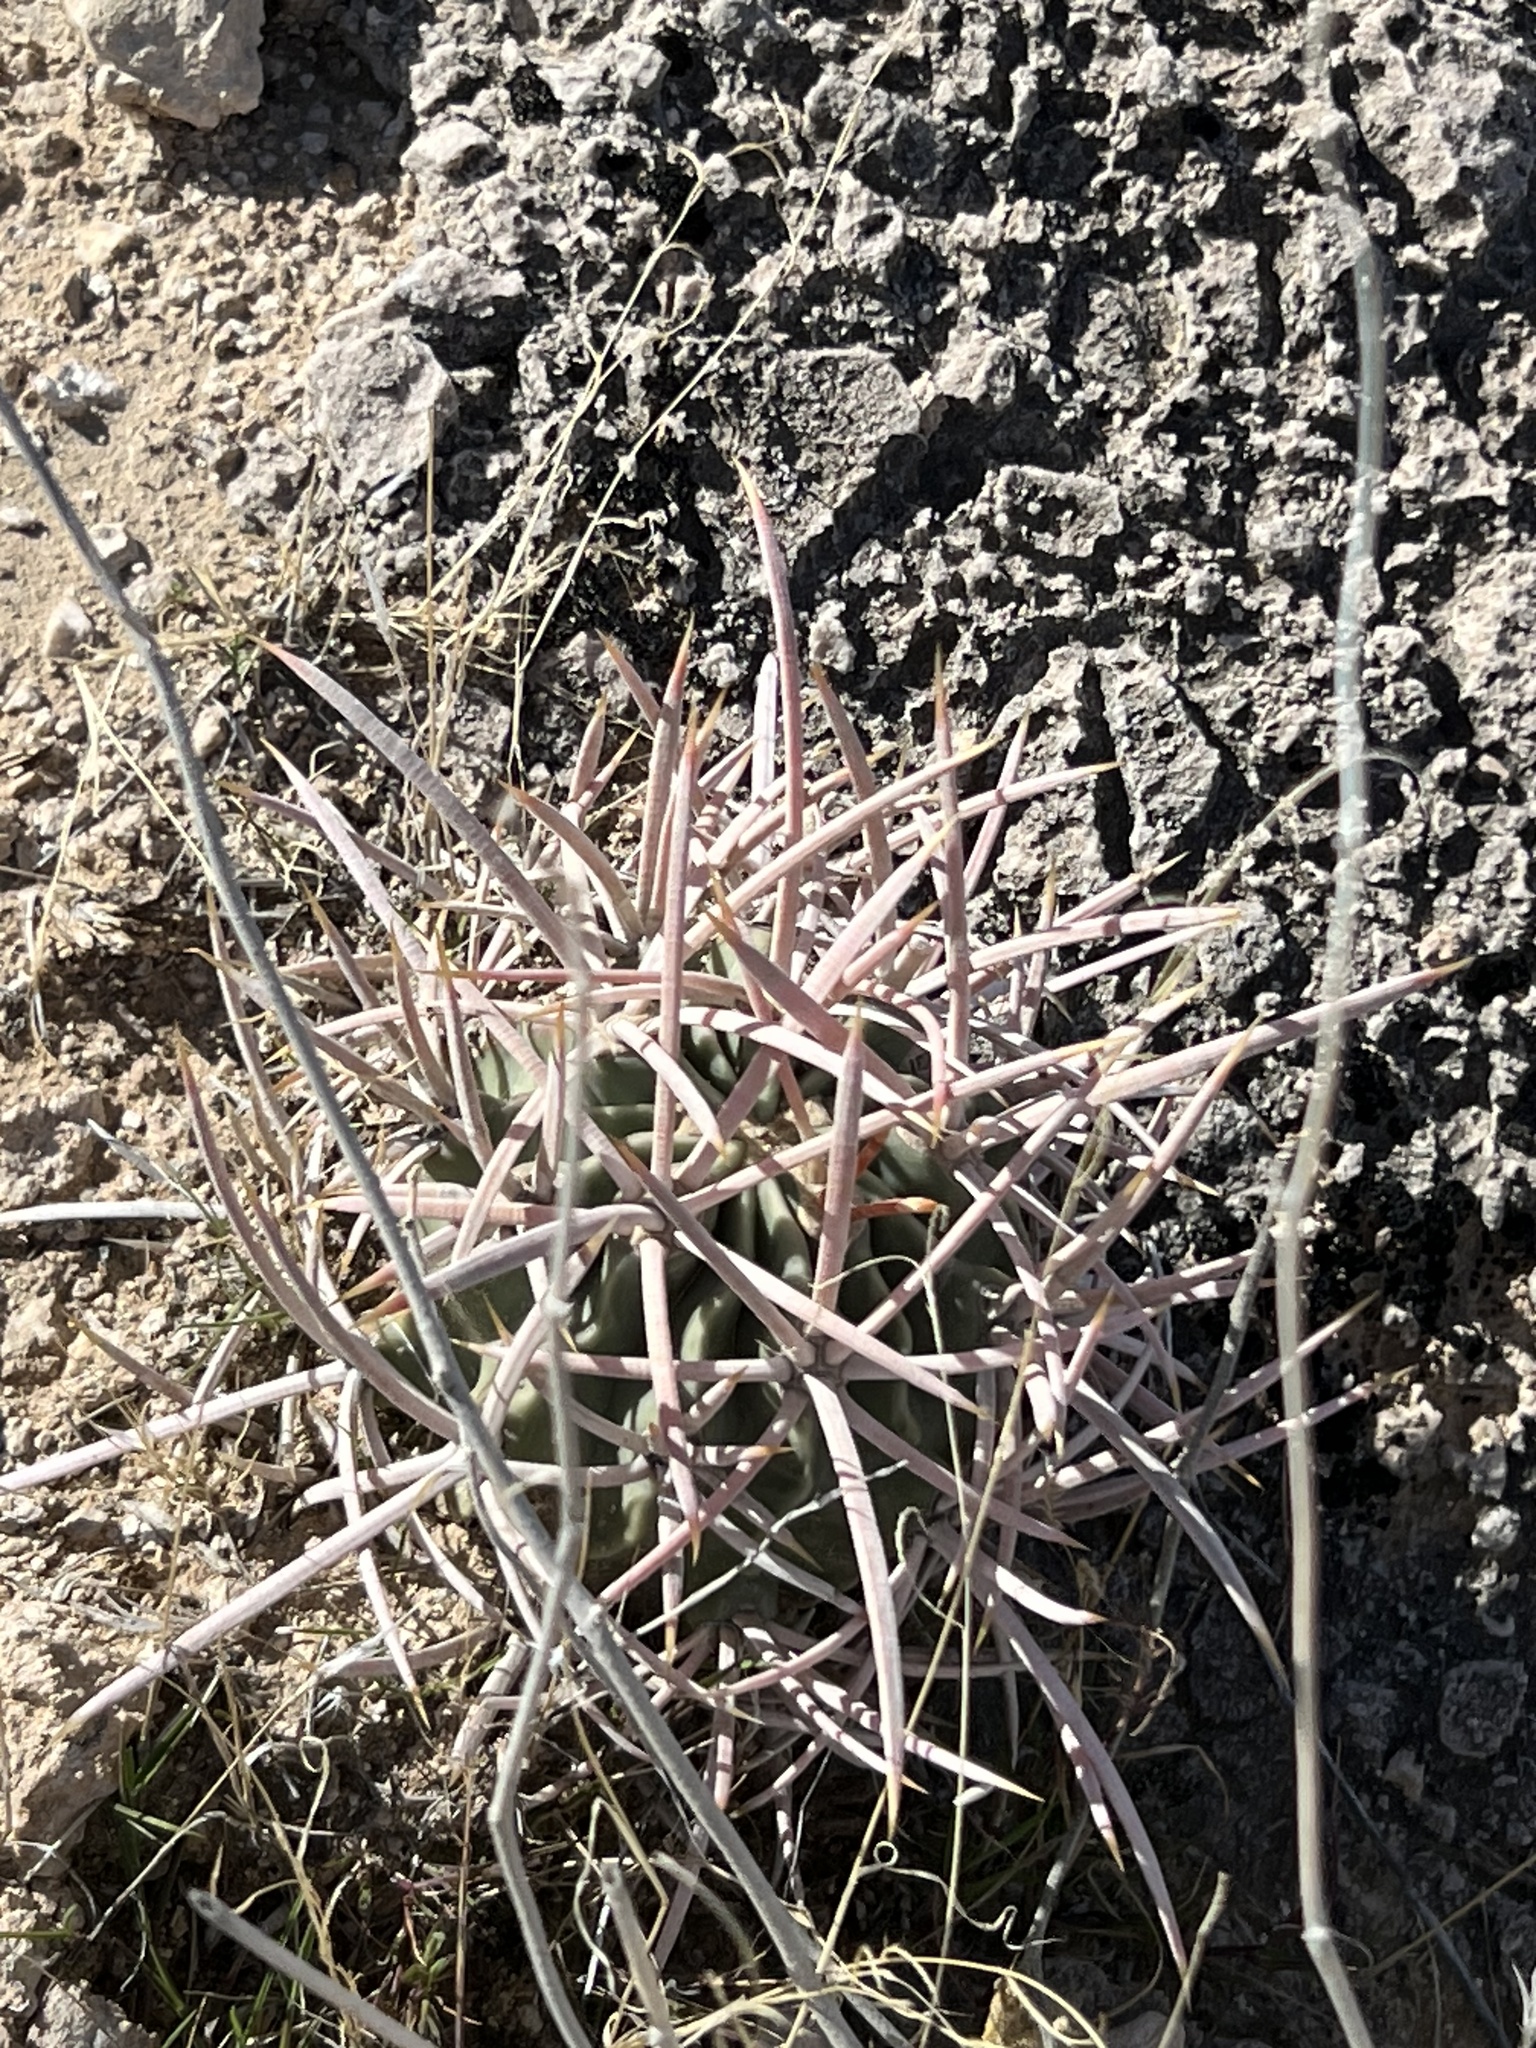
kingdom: Plantae
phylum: Tracheophyta
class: Magnoliopsida
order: Caryophyllales
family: Cactaceae
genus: Echinocactus
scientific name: Echinocactus polycephalus
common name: Cottontop cactus
